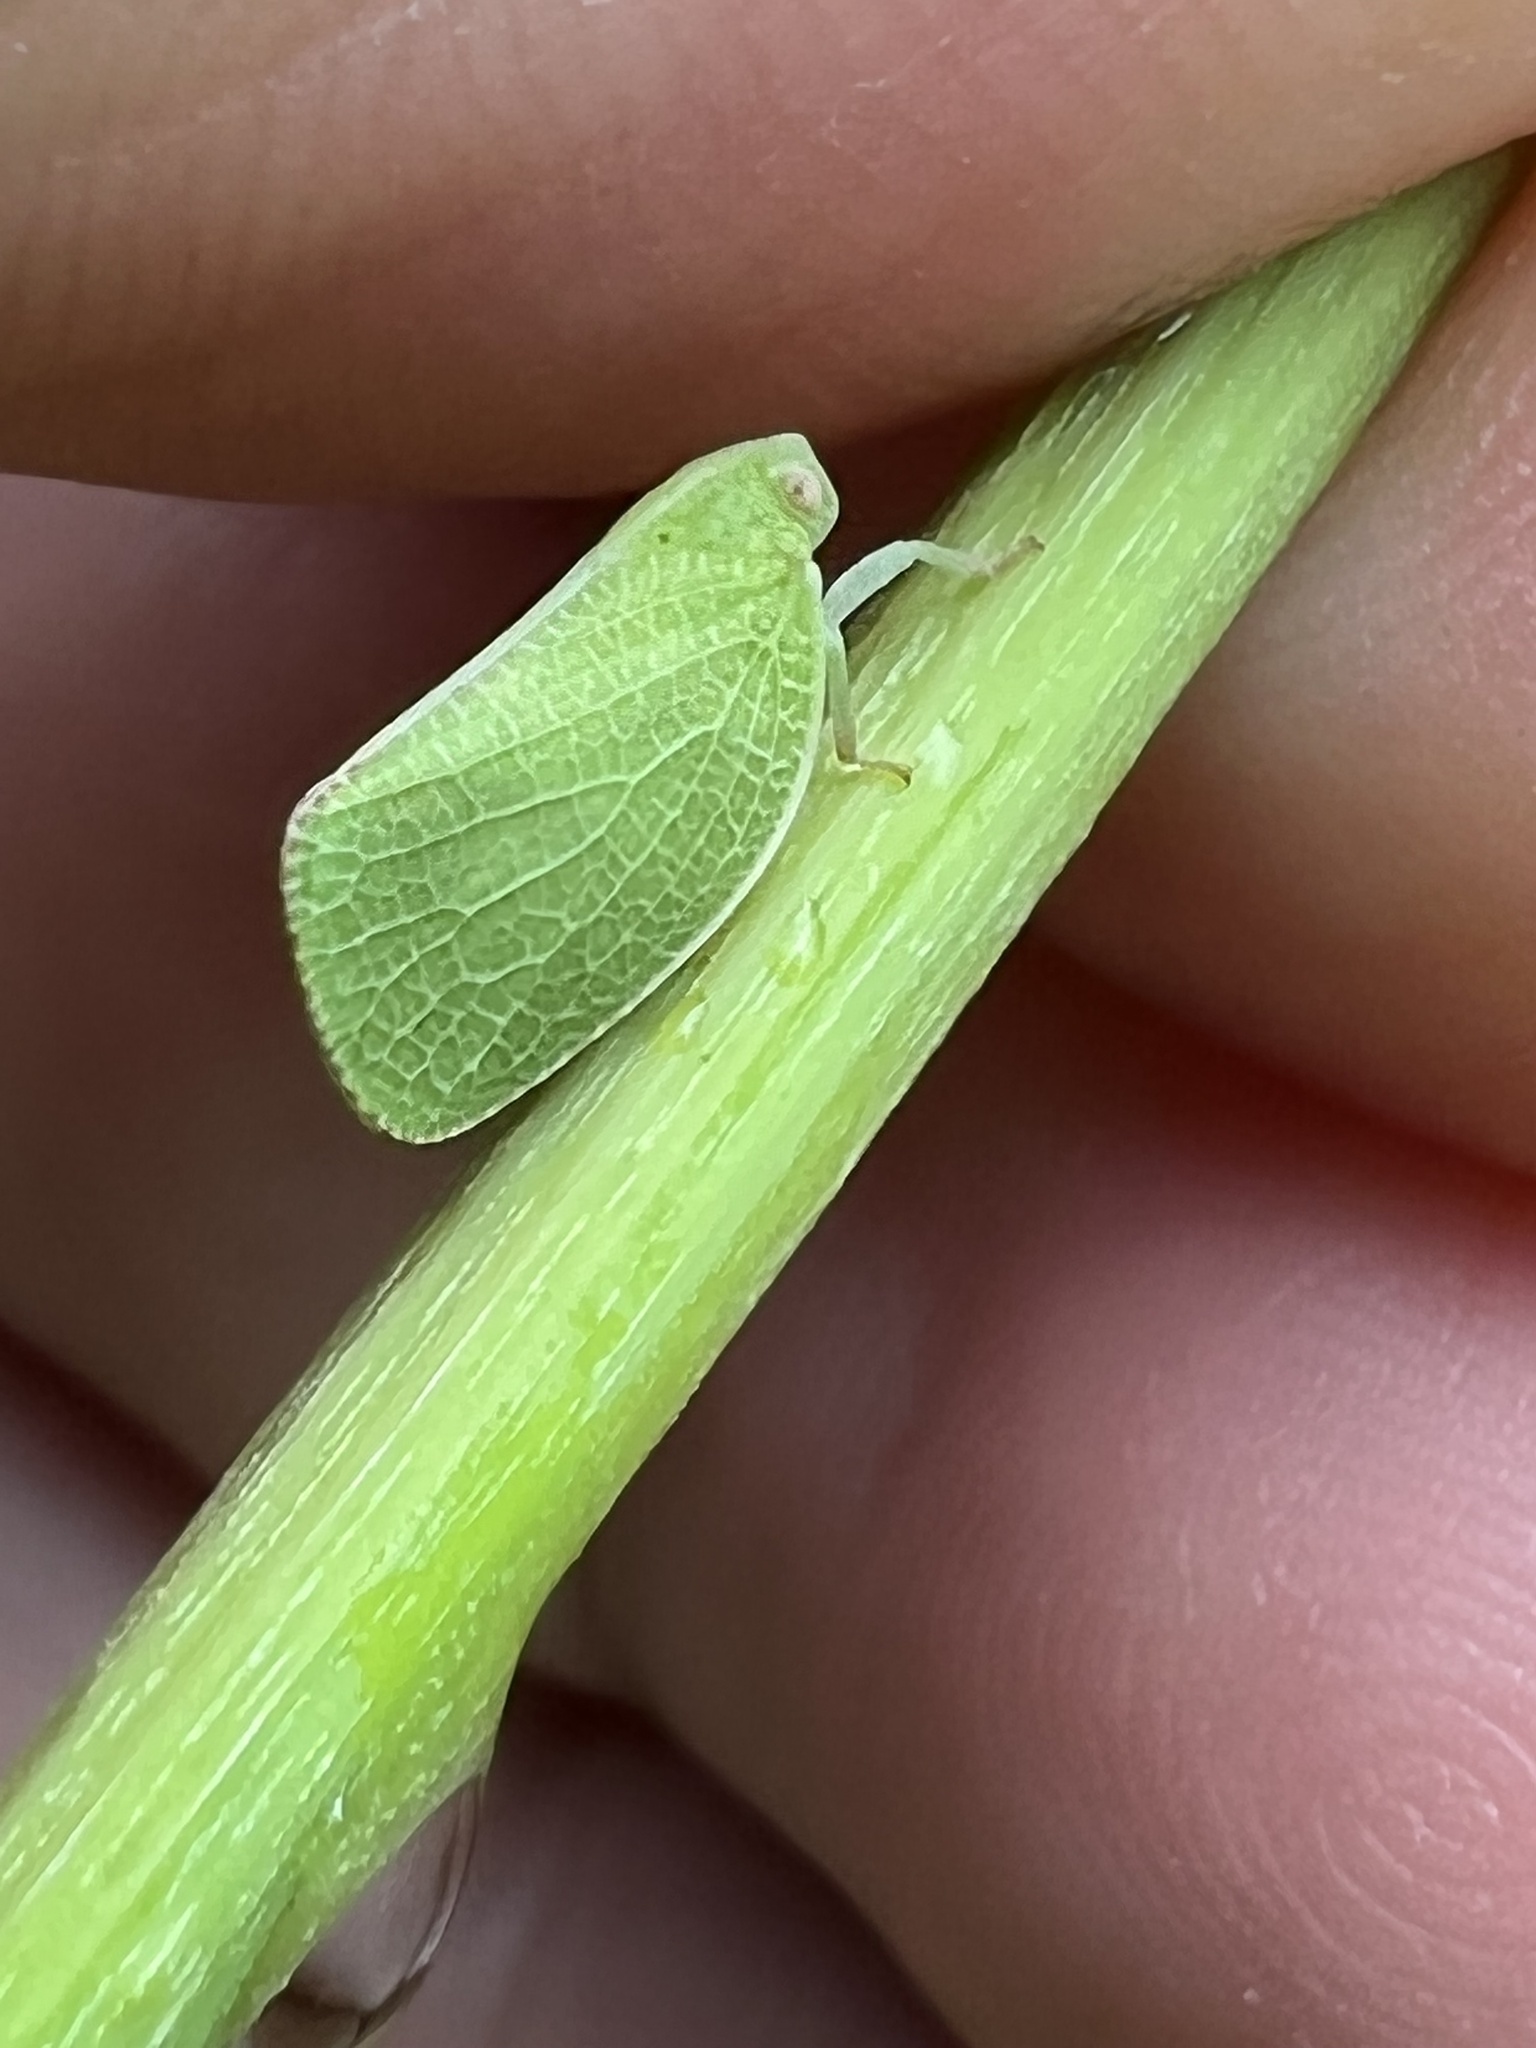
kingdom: Animalia
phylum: Arthropoda
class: Insecta
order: Hemiptera
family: Acanaloniidae
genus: Acanalonia
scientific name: Acanalonia conica
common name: Green cone-headed planthopper
